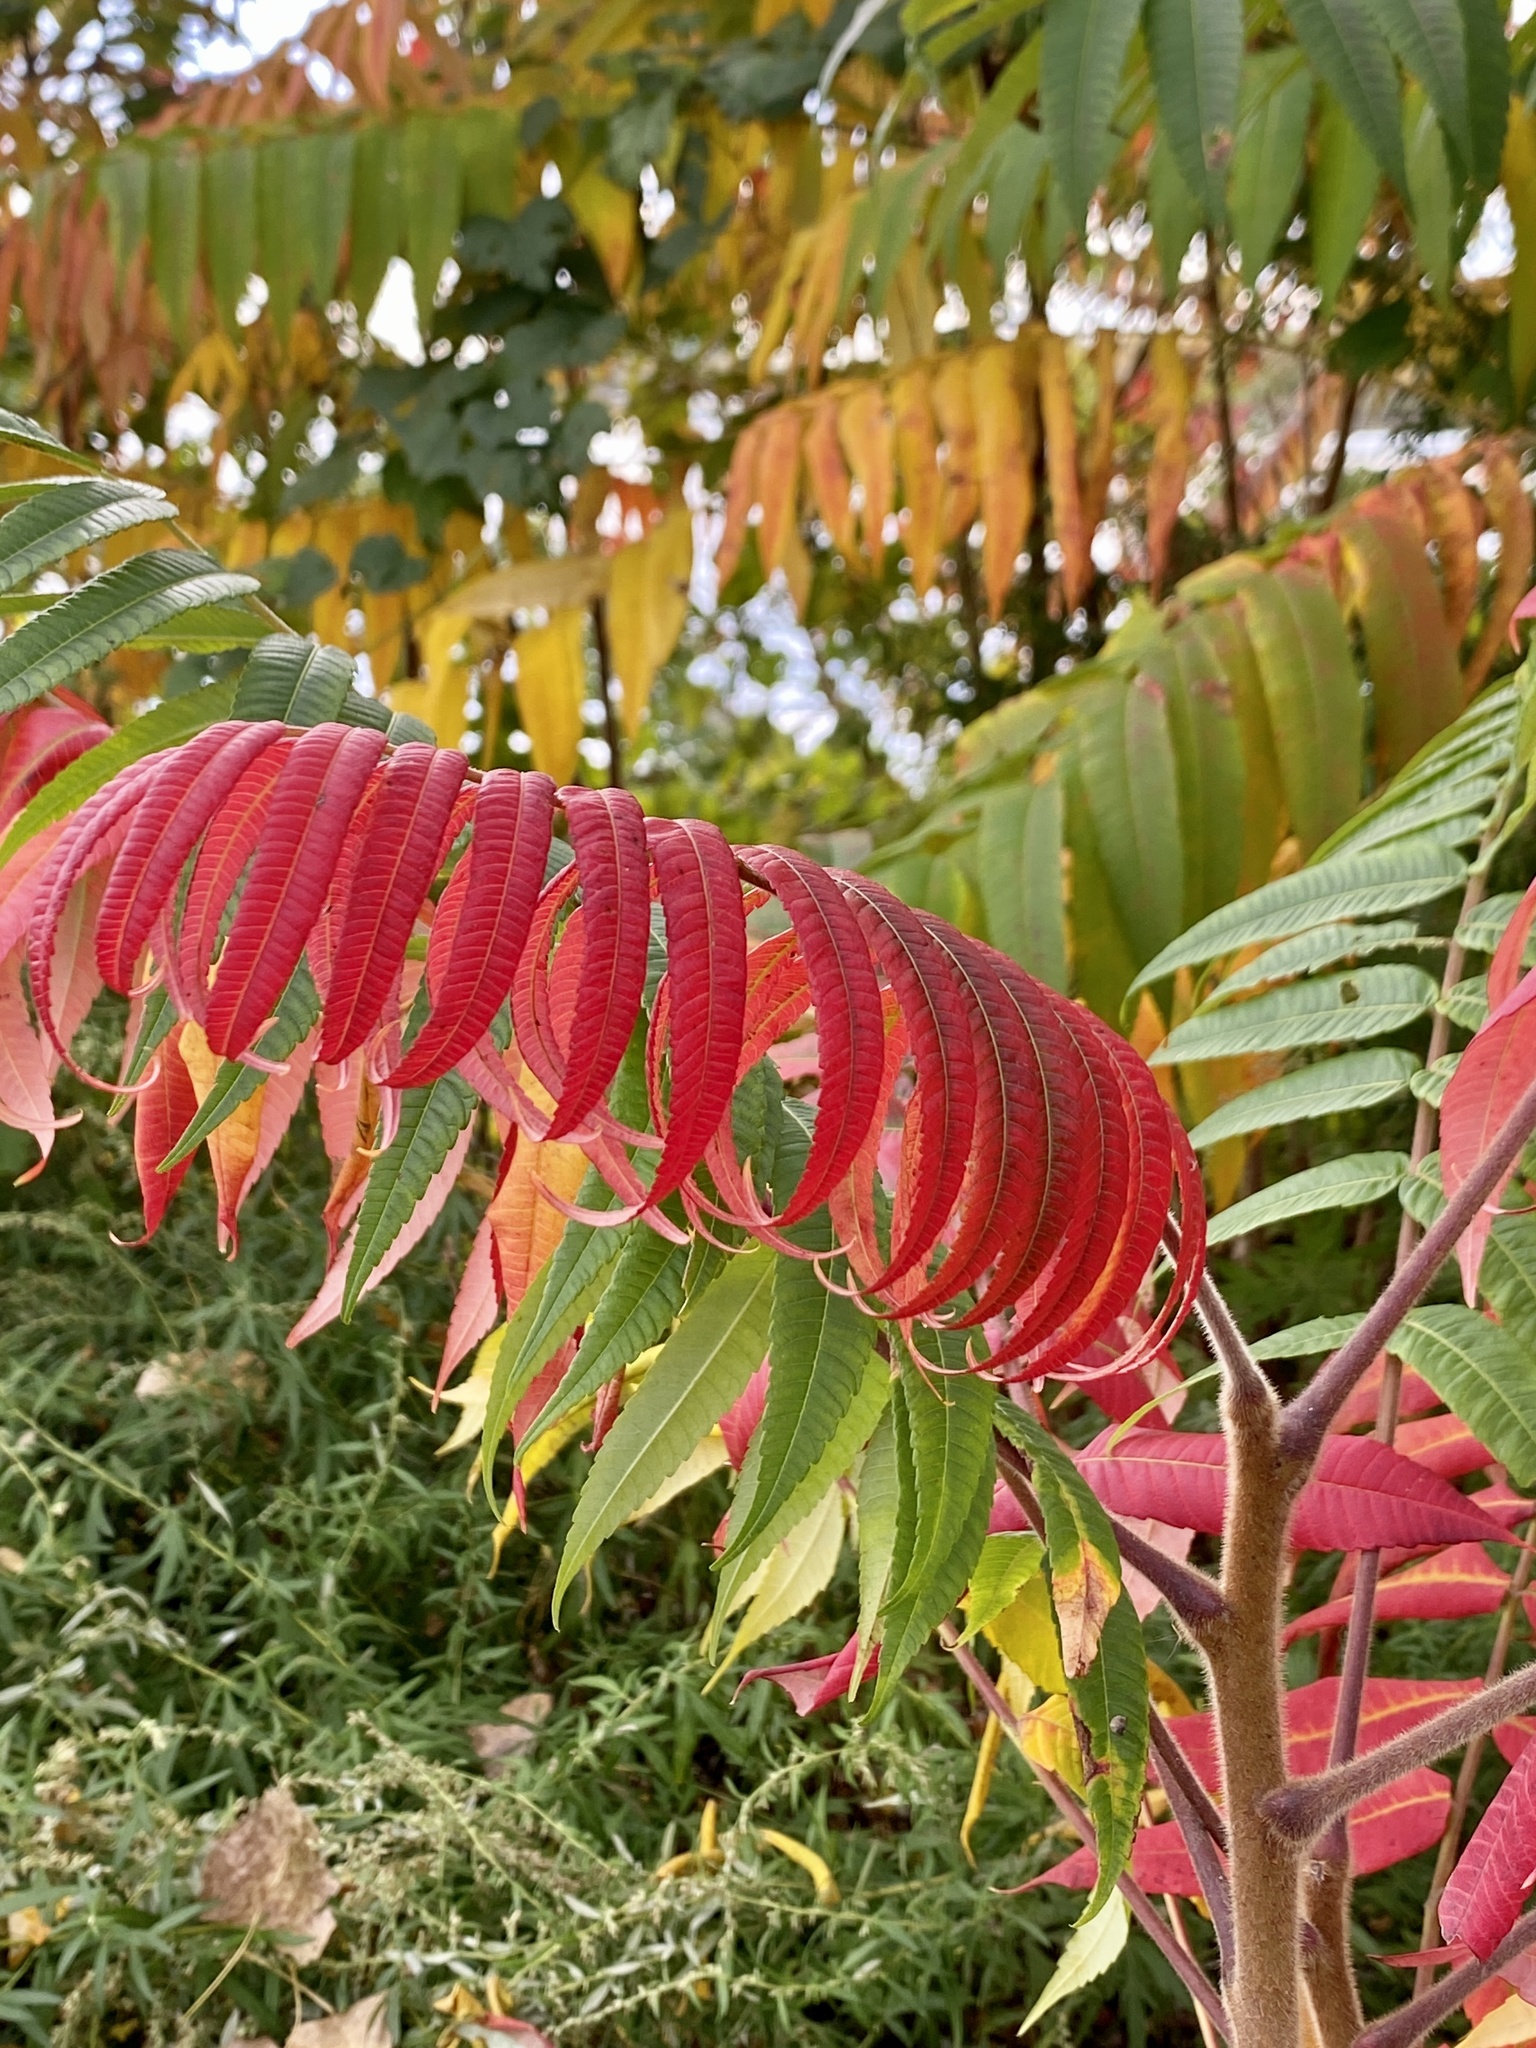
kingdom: Plantae
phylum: Tracheophyta
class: Magnoliopsida
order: Sapindales
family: Anacardiaceae
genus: Rhus
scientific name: Rhus typhina
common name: Staghorn sumac
